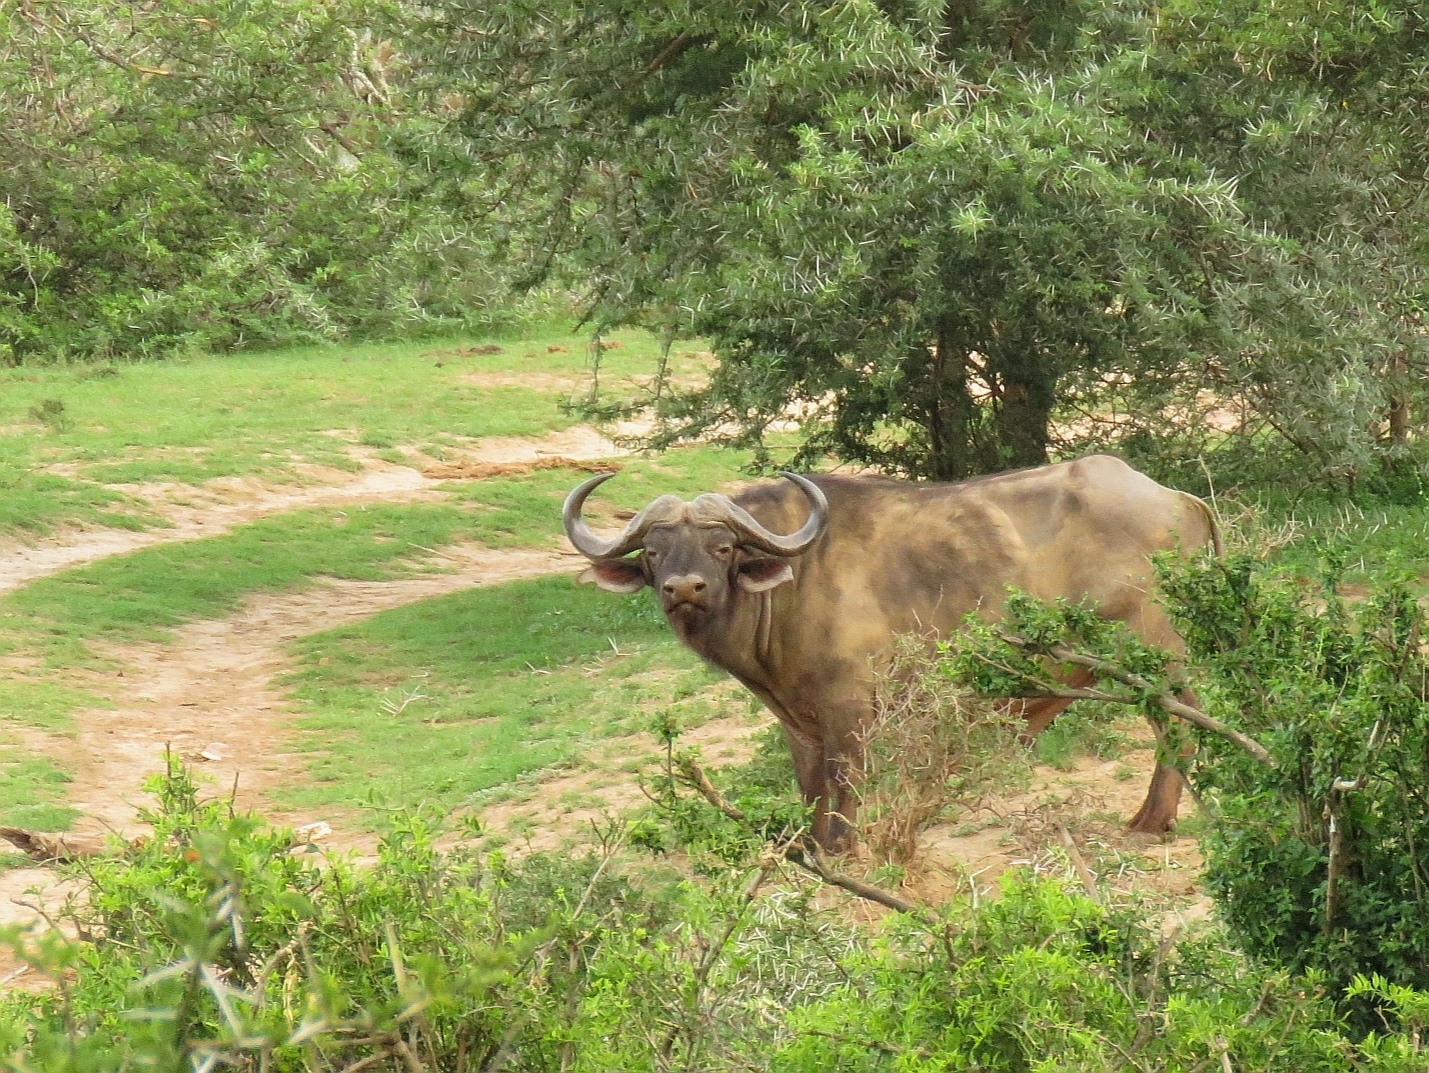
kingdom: Animalia
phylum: Chordata
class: Mammalia
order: Artiodactyla
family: Bovidae
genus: Syncerus
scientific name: Syncerus caffer
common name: African buffalo
